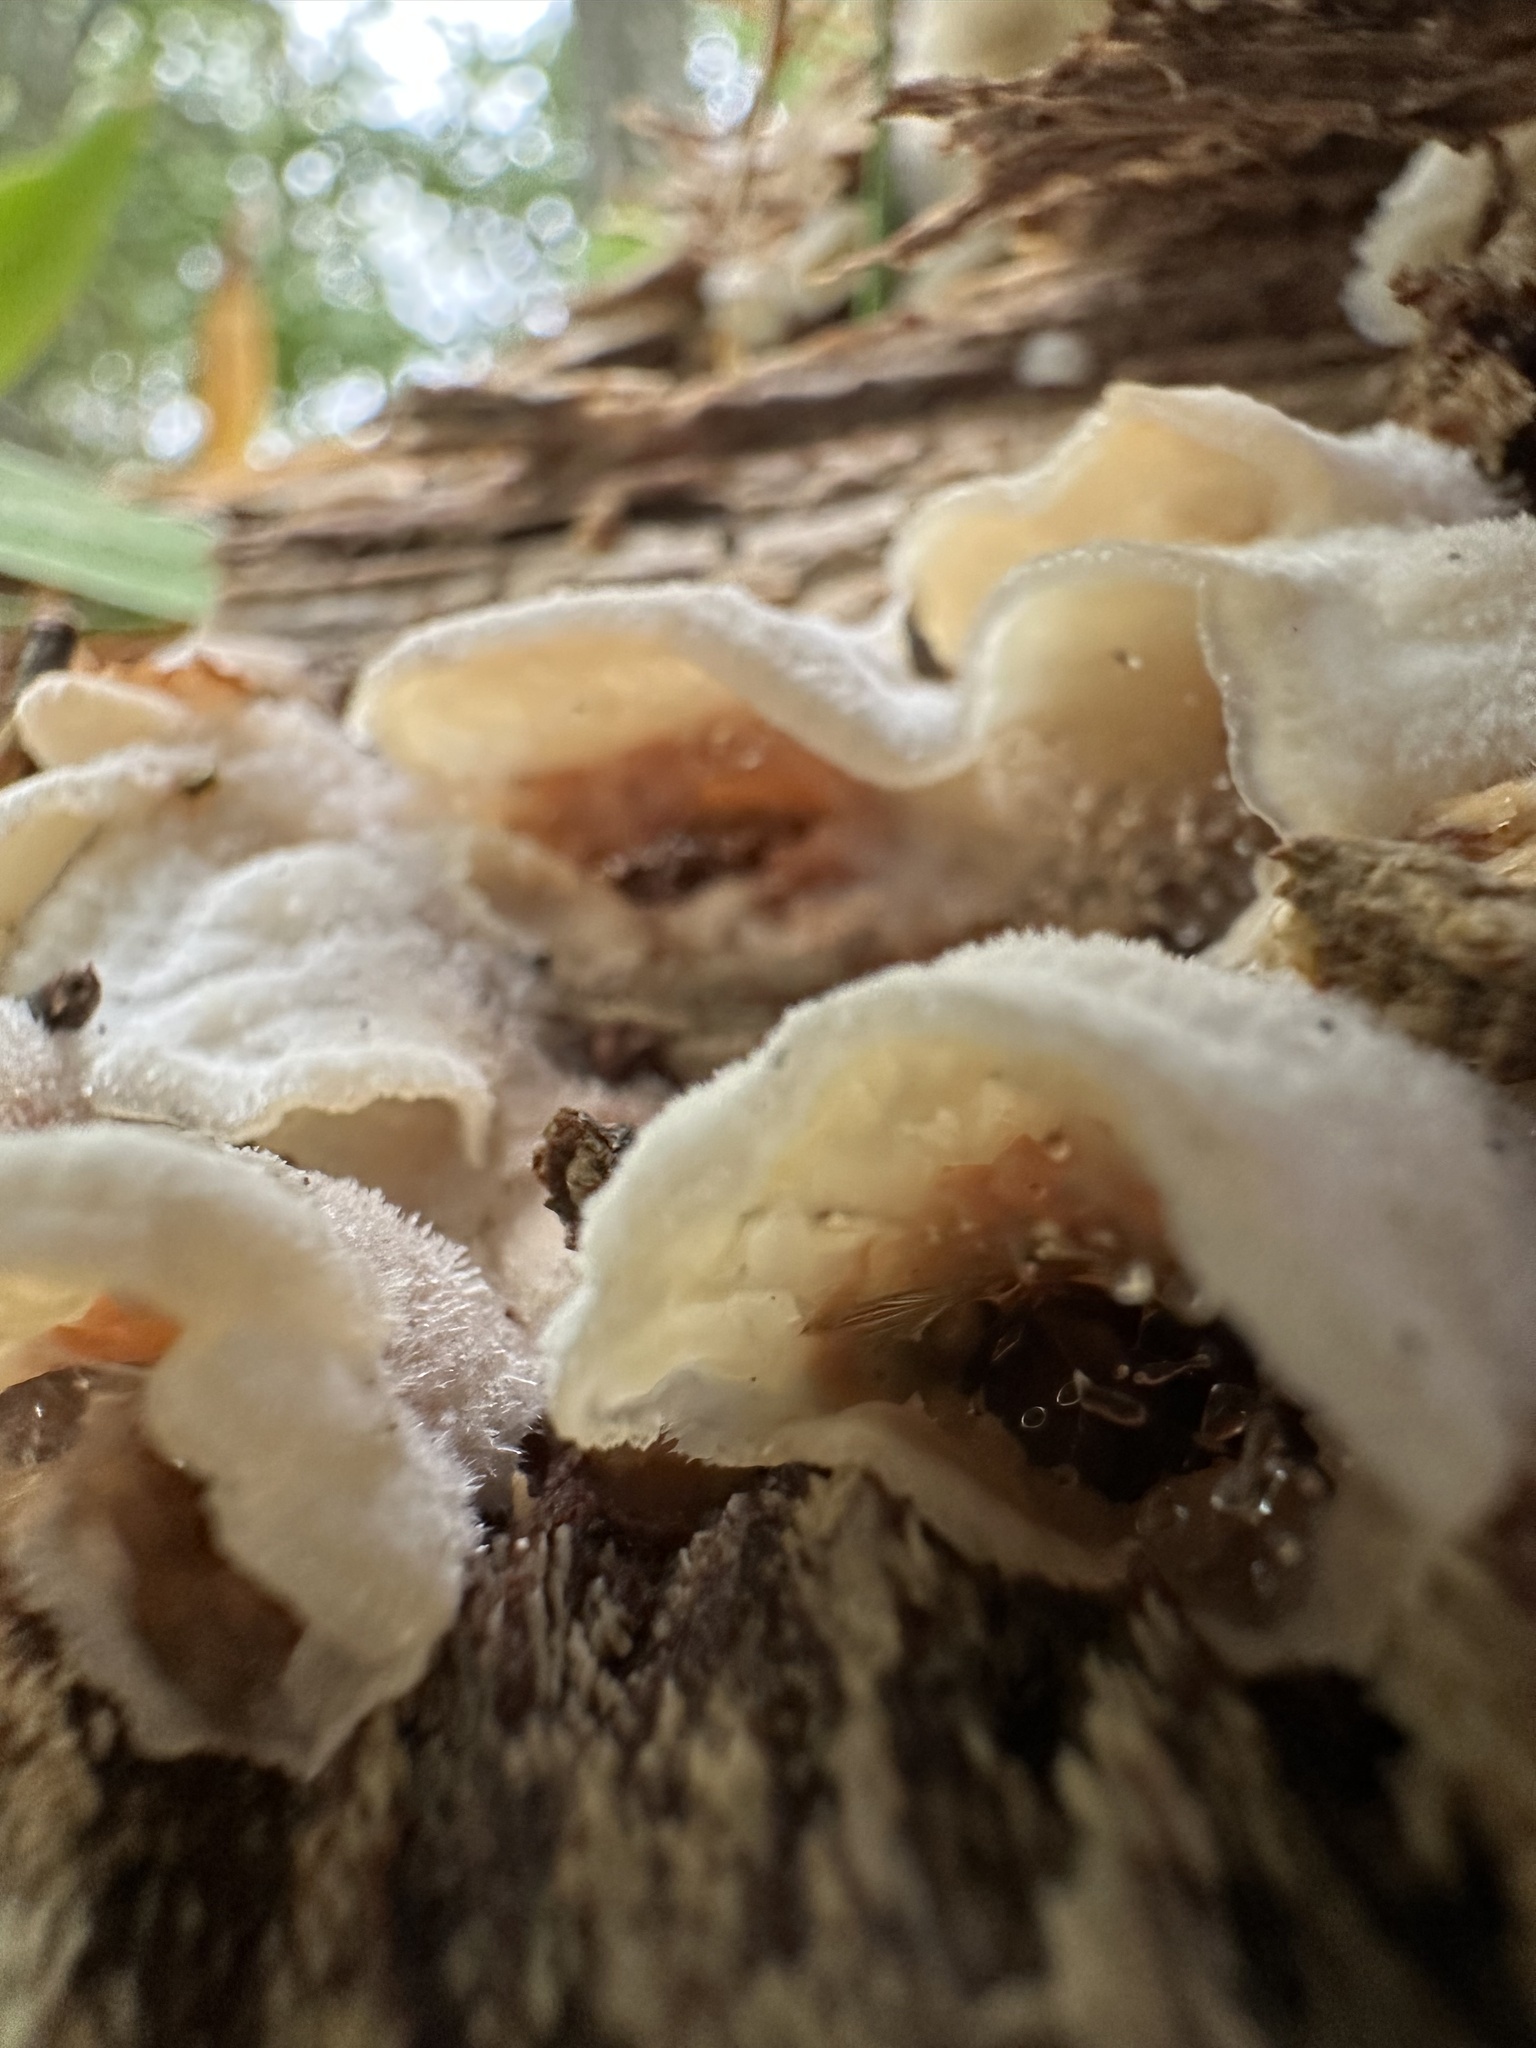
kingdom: Fungi
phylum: Basidiomycota
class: Agaricomycetes
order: Polyporales
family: Meruliaceae
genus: Phlebia
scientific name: Phlebia tremellosa
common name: Jelly rot
